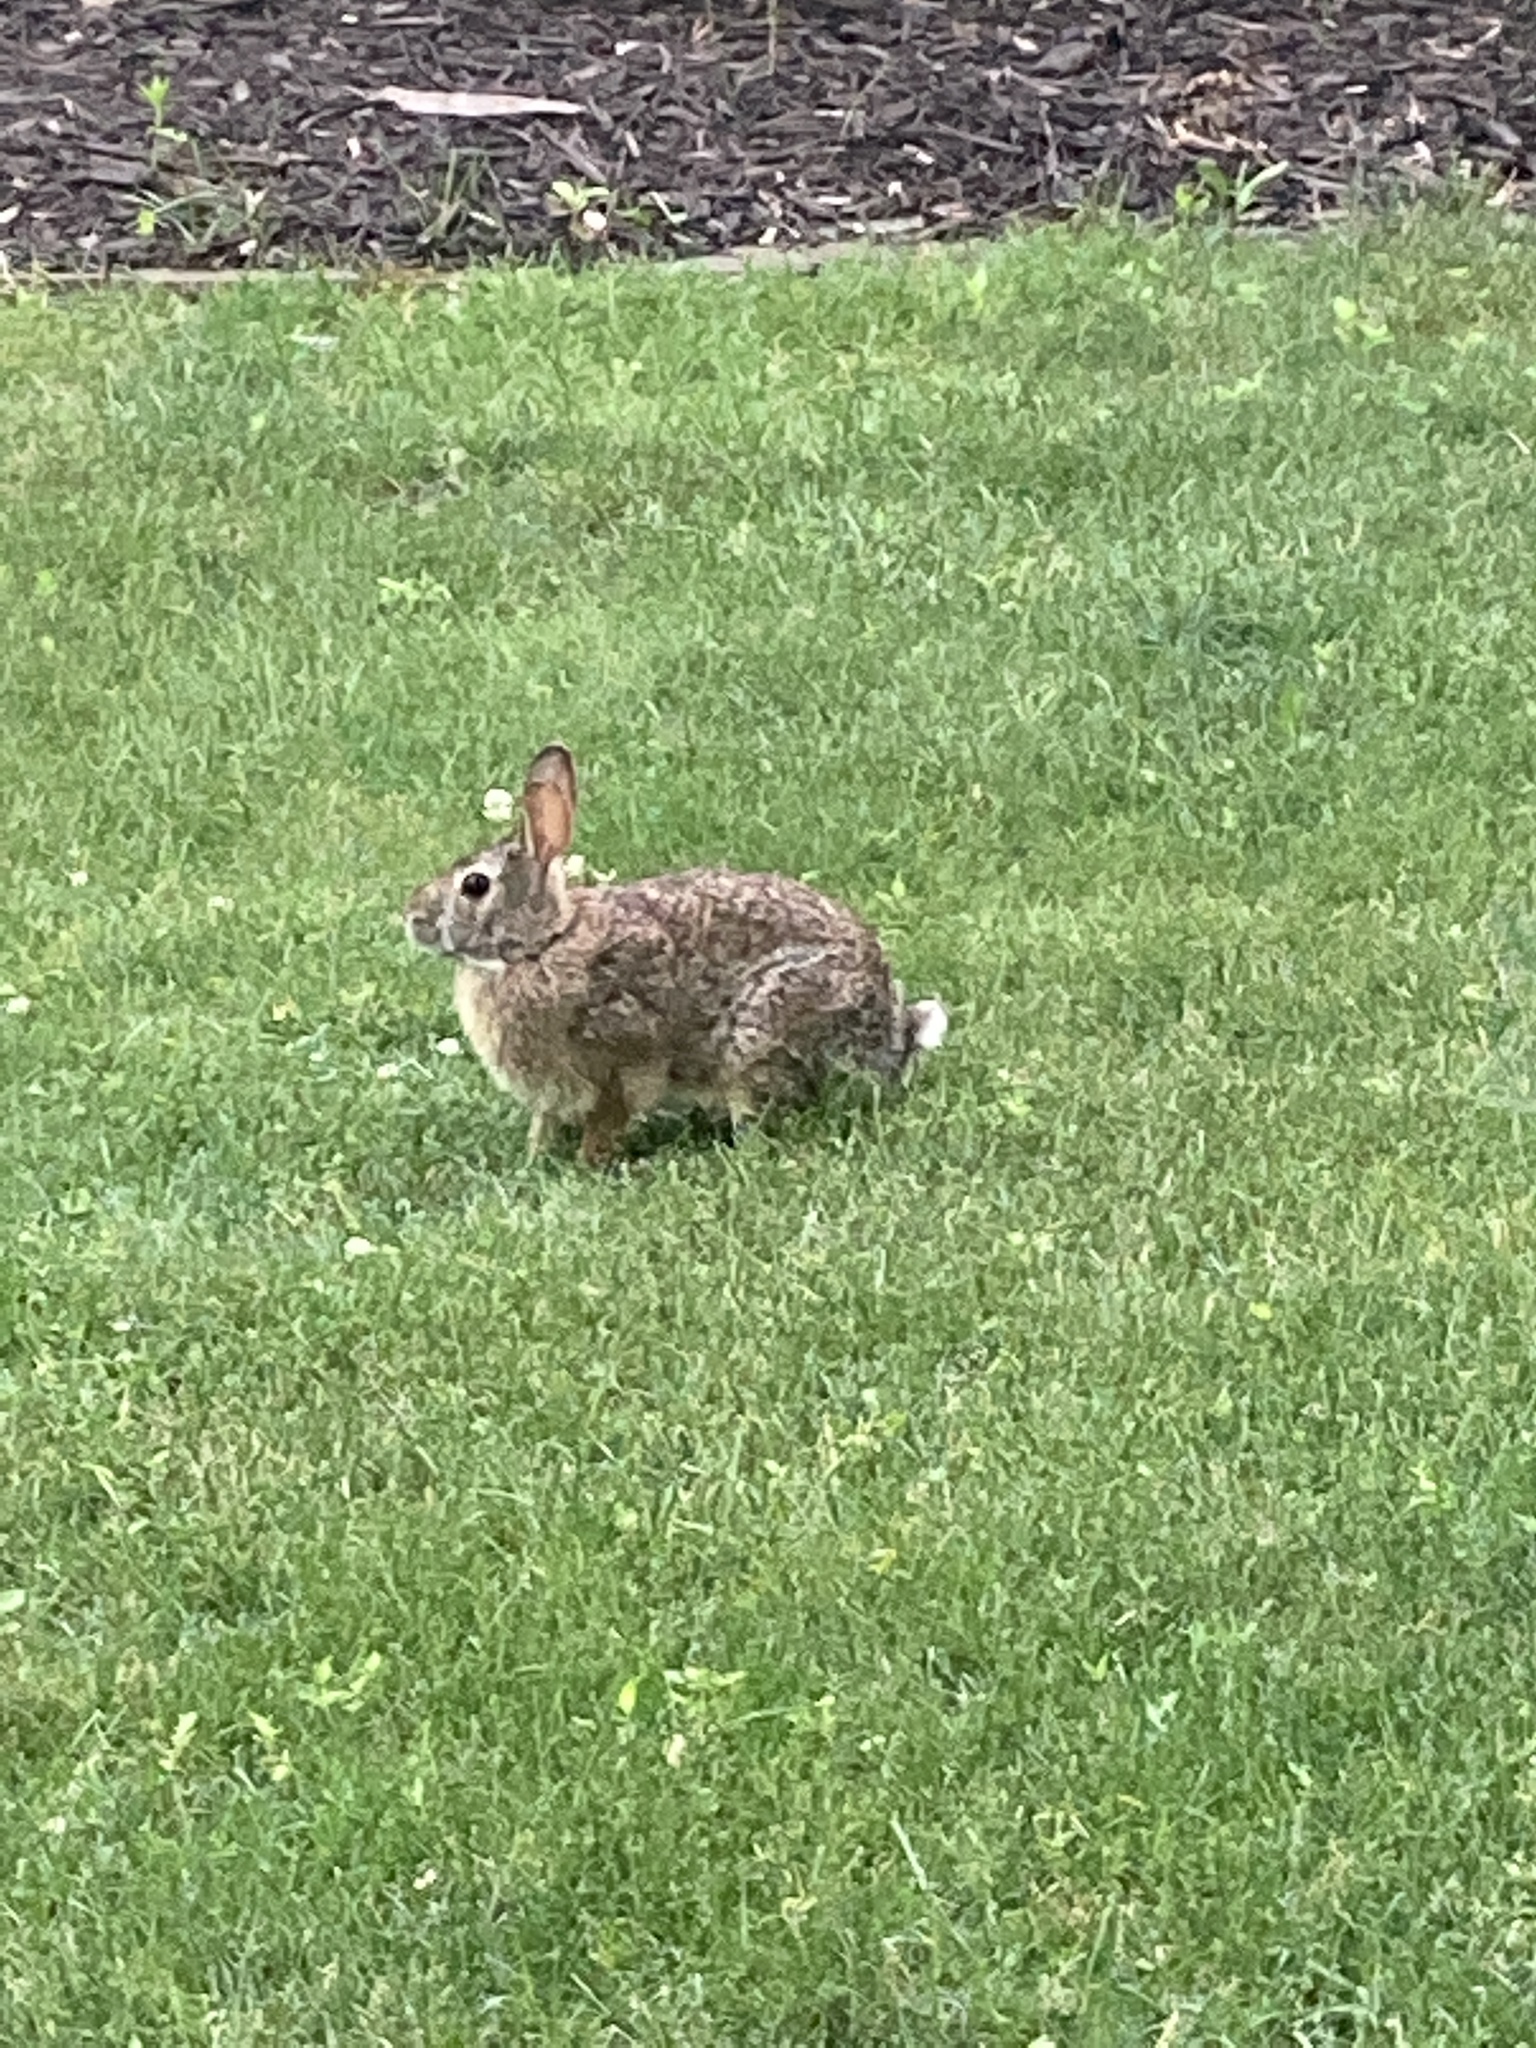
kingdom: Animalia
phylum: Chordata
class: Mammalia
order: Lagomorpha
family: Leporidae
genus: Sylvilagus
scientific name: Sylvilagus floridanus
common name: Eastern cottontail
